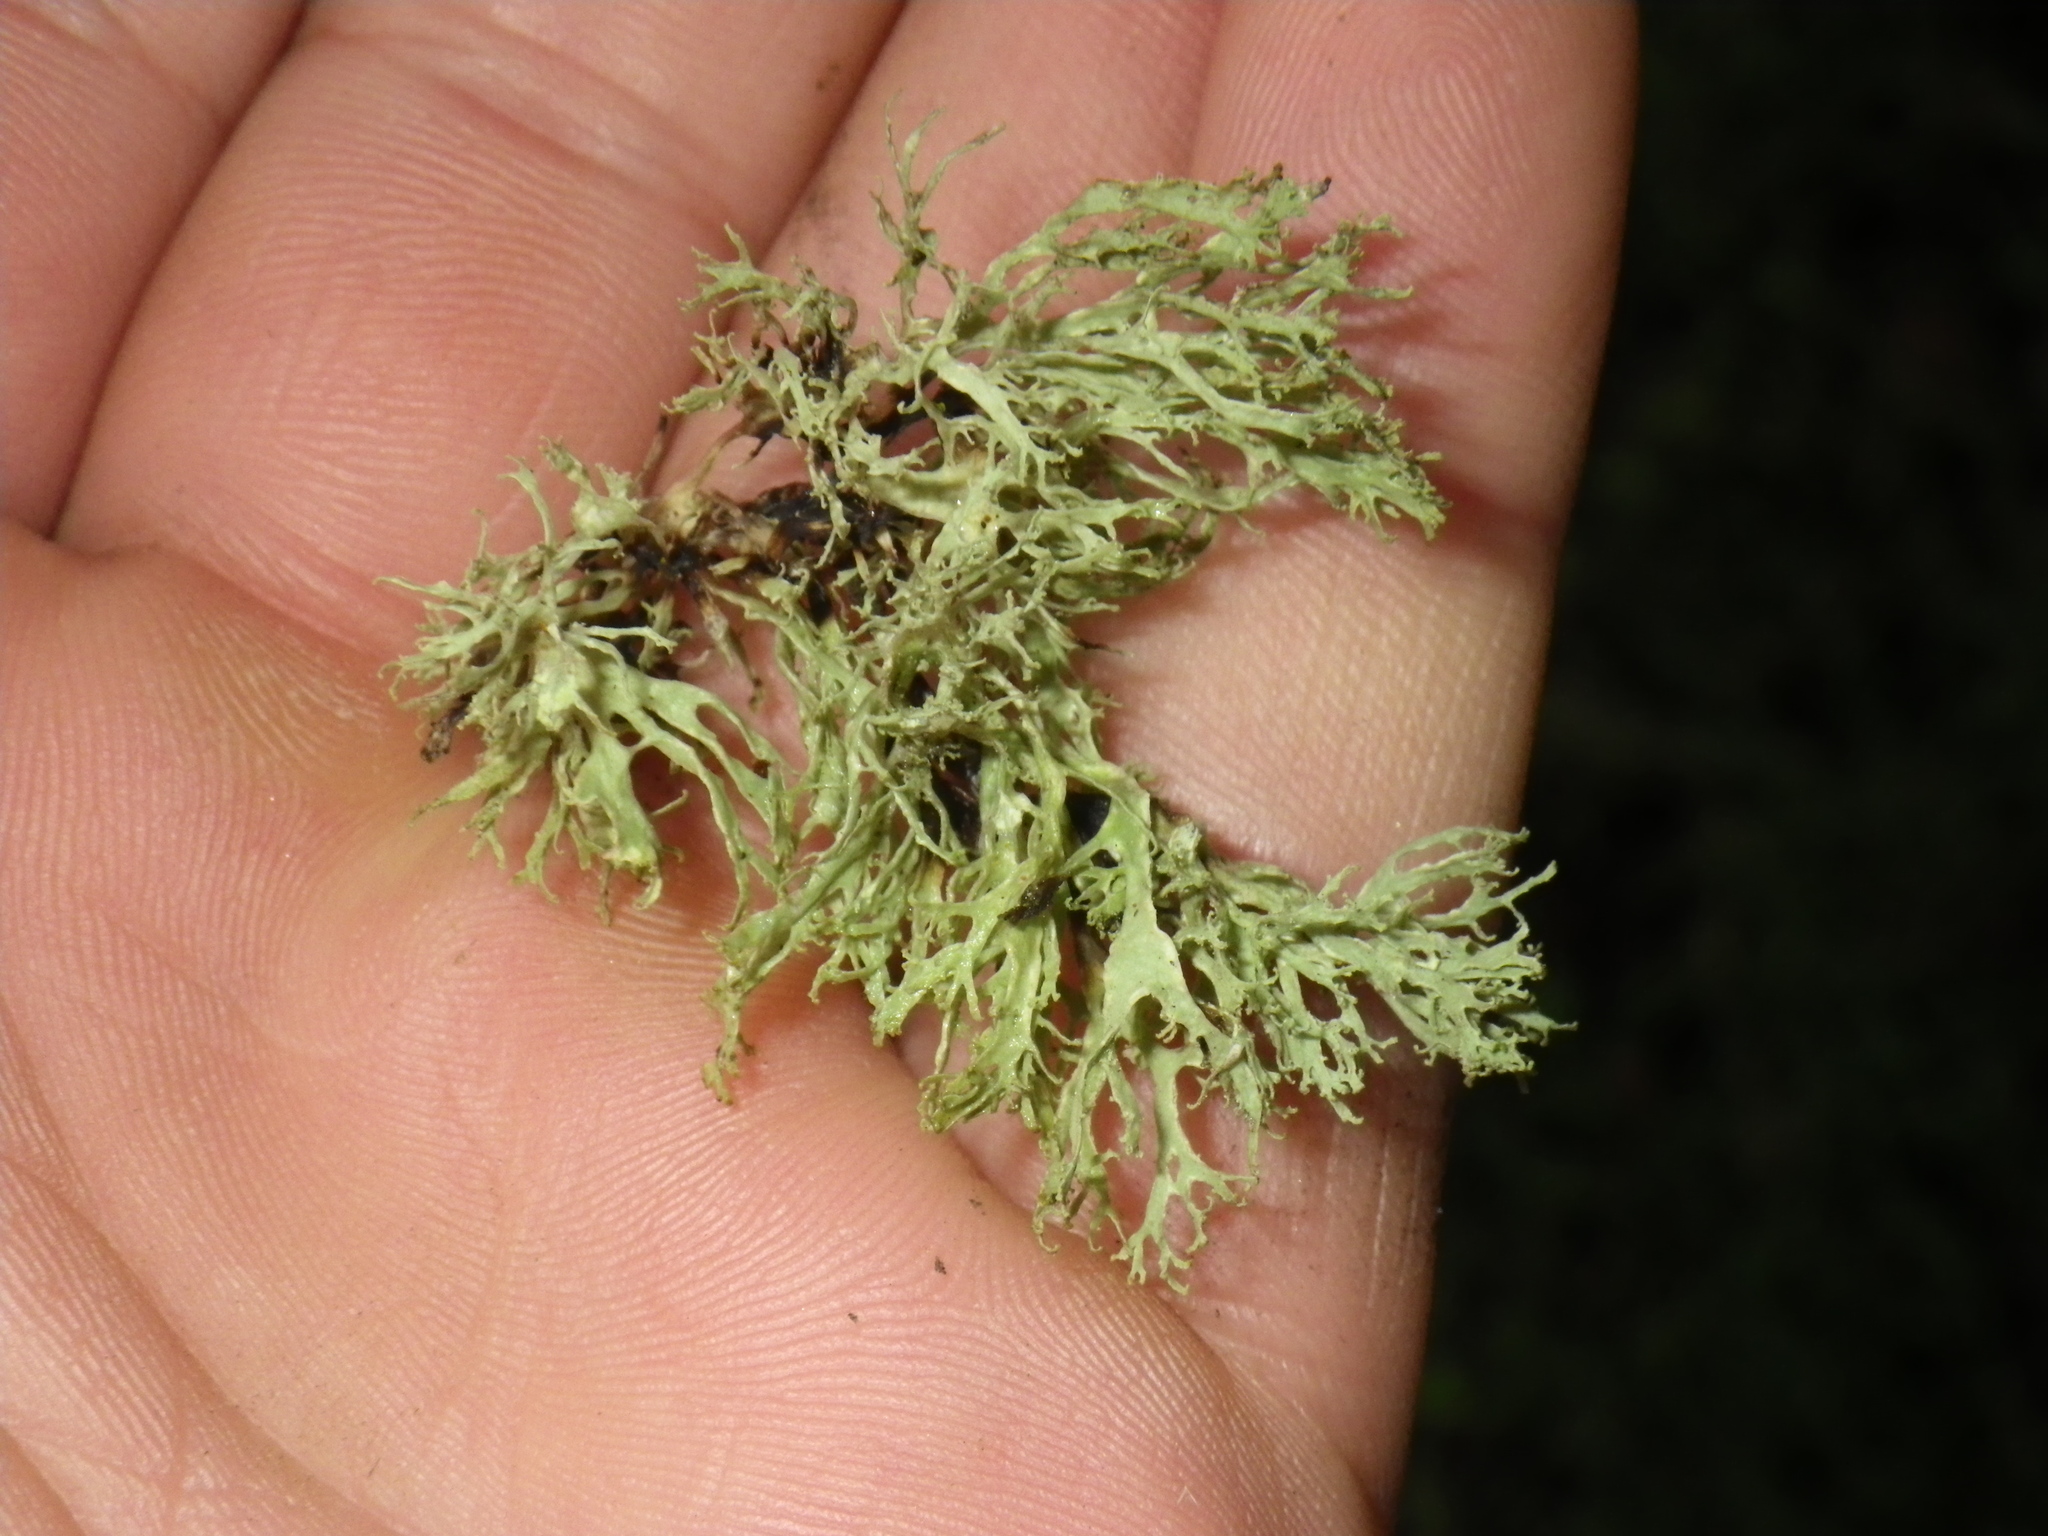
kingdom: Fungi
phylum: Ascomycota
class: Lecanoromycetes
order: Lecanorales
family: Ramalinaceae
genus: Ramalina
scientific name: Ramalina farinacea
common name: Farinose cartilage lichen
